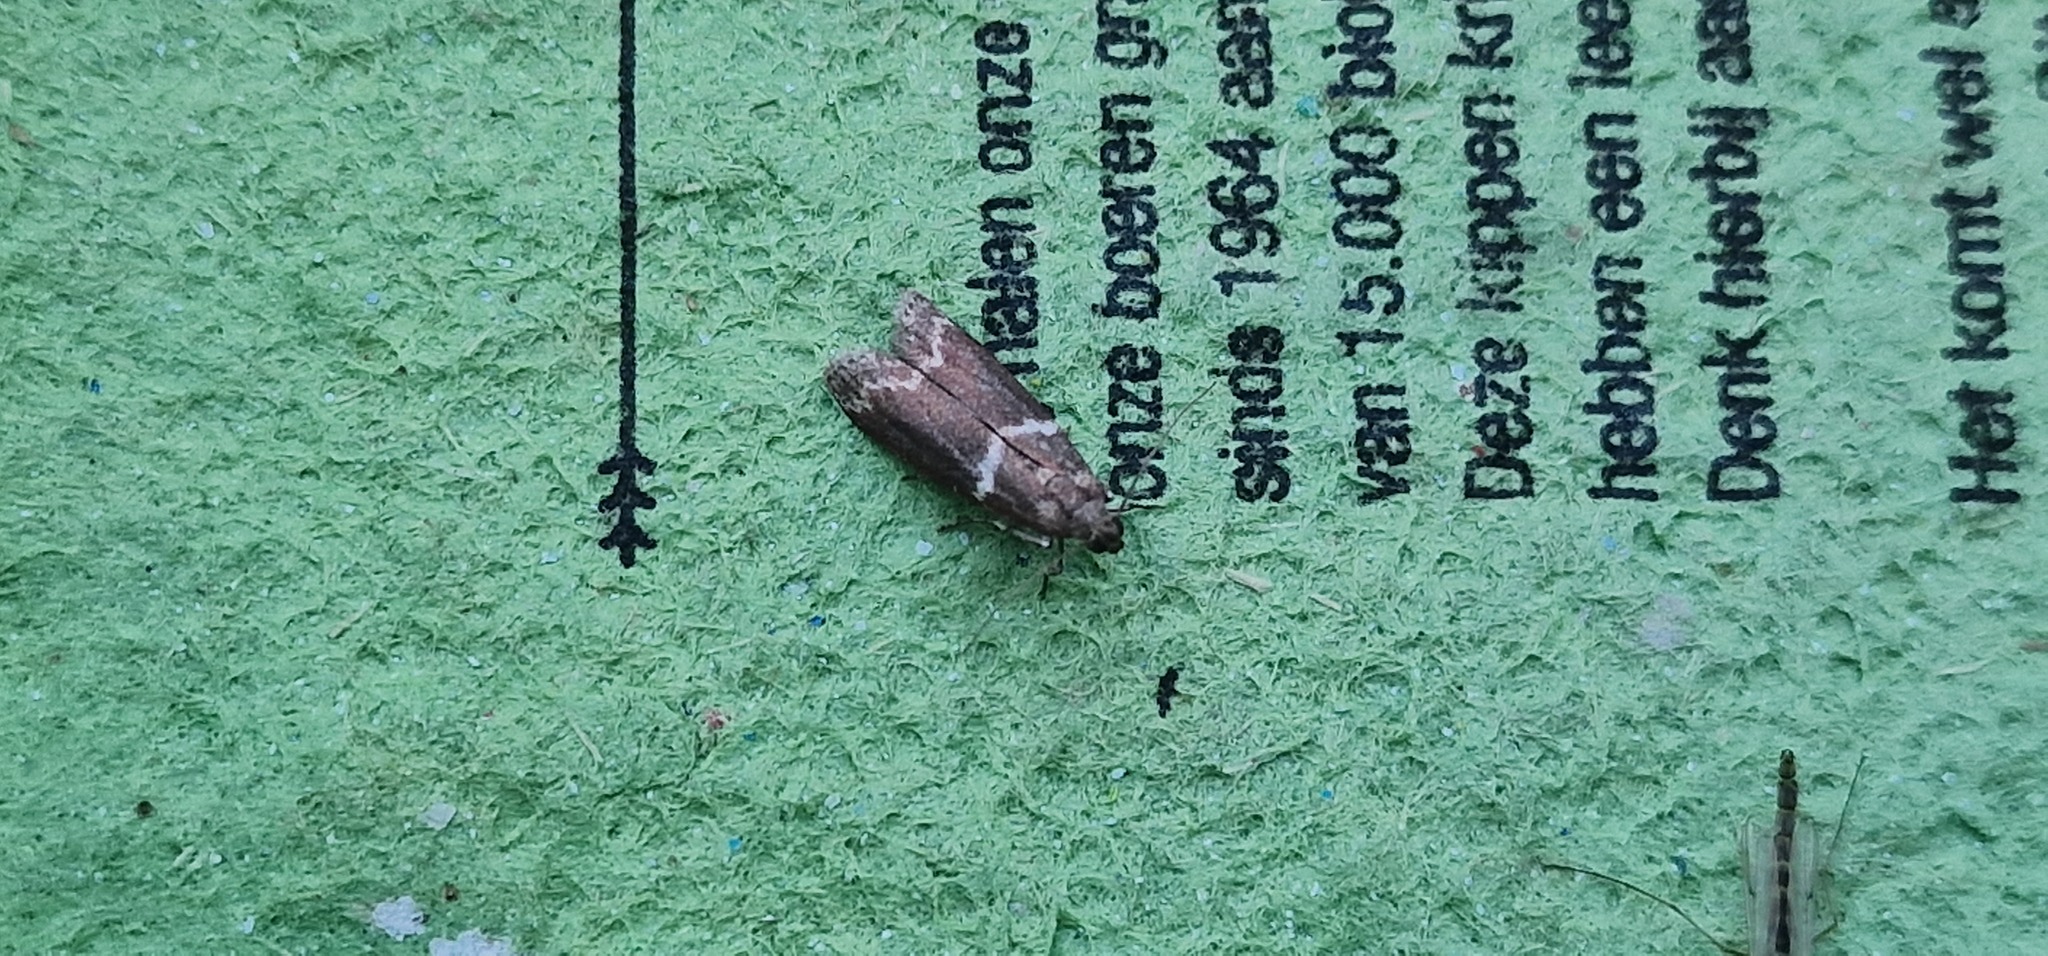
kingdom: Animalia
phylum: Arthropoda
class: Insecta
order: Lepidoptera
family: Pyralidae
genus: Cryptoblabes
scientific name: Cryptoblabes bistriga
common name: Double-striped knot-horn
